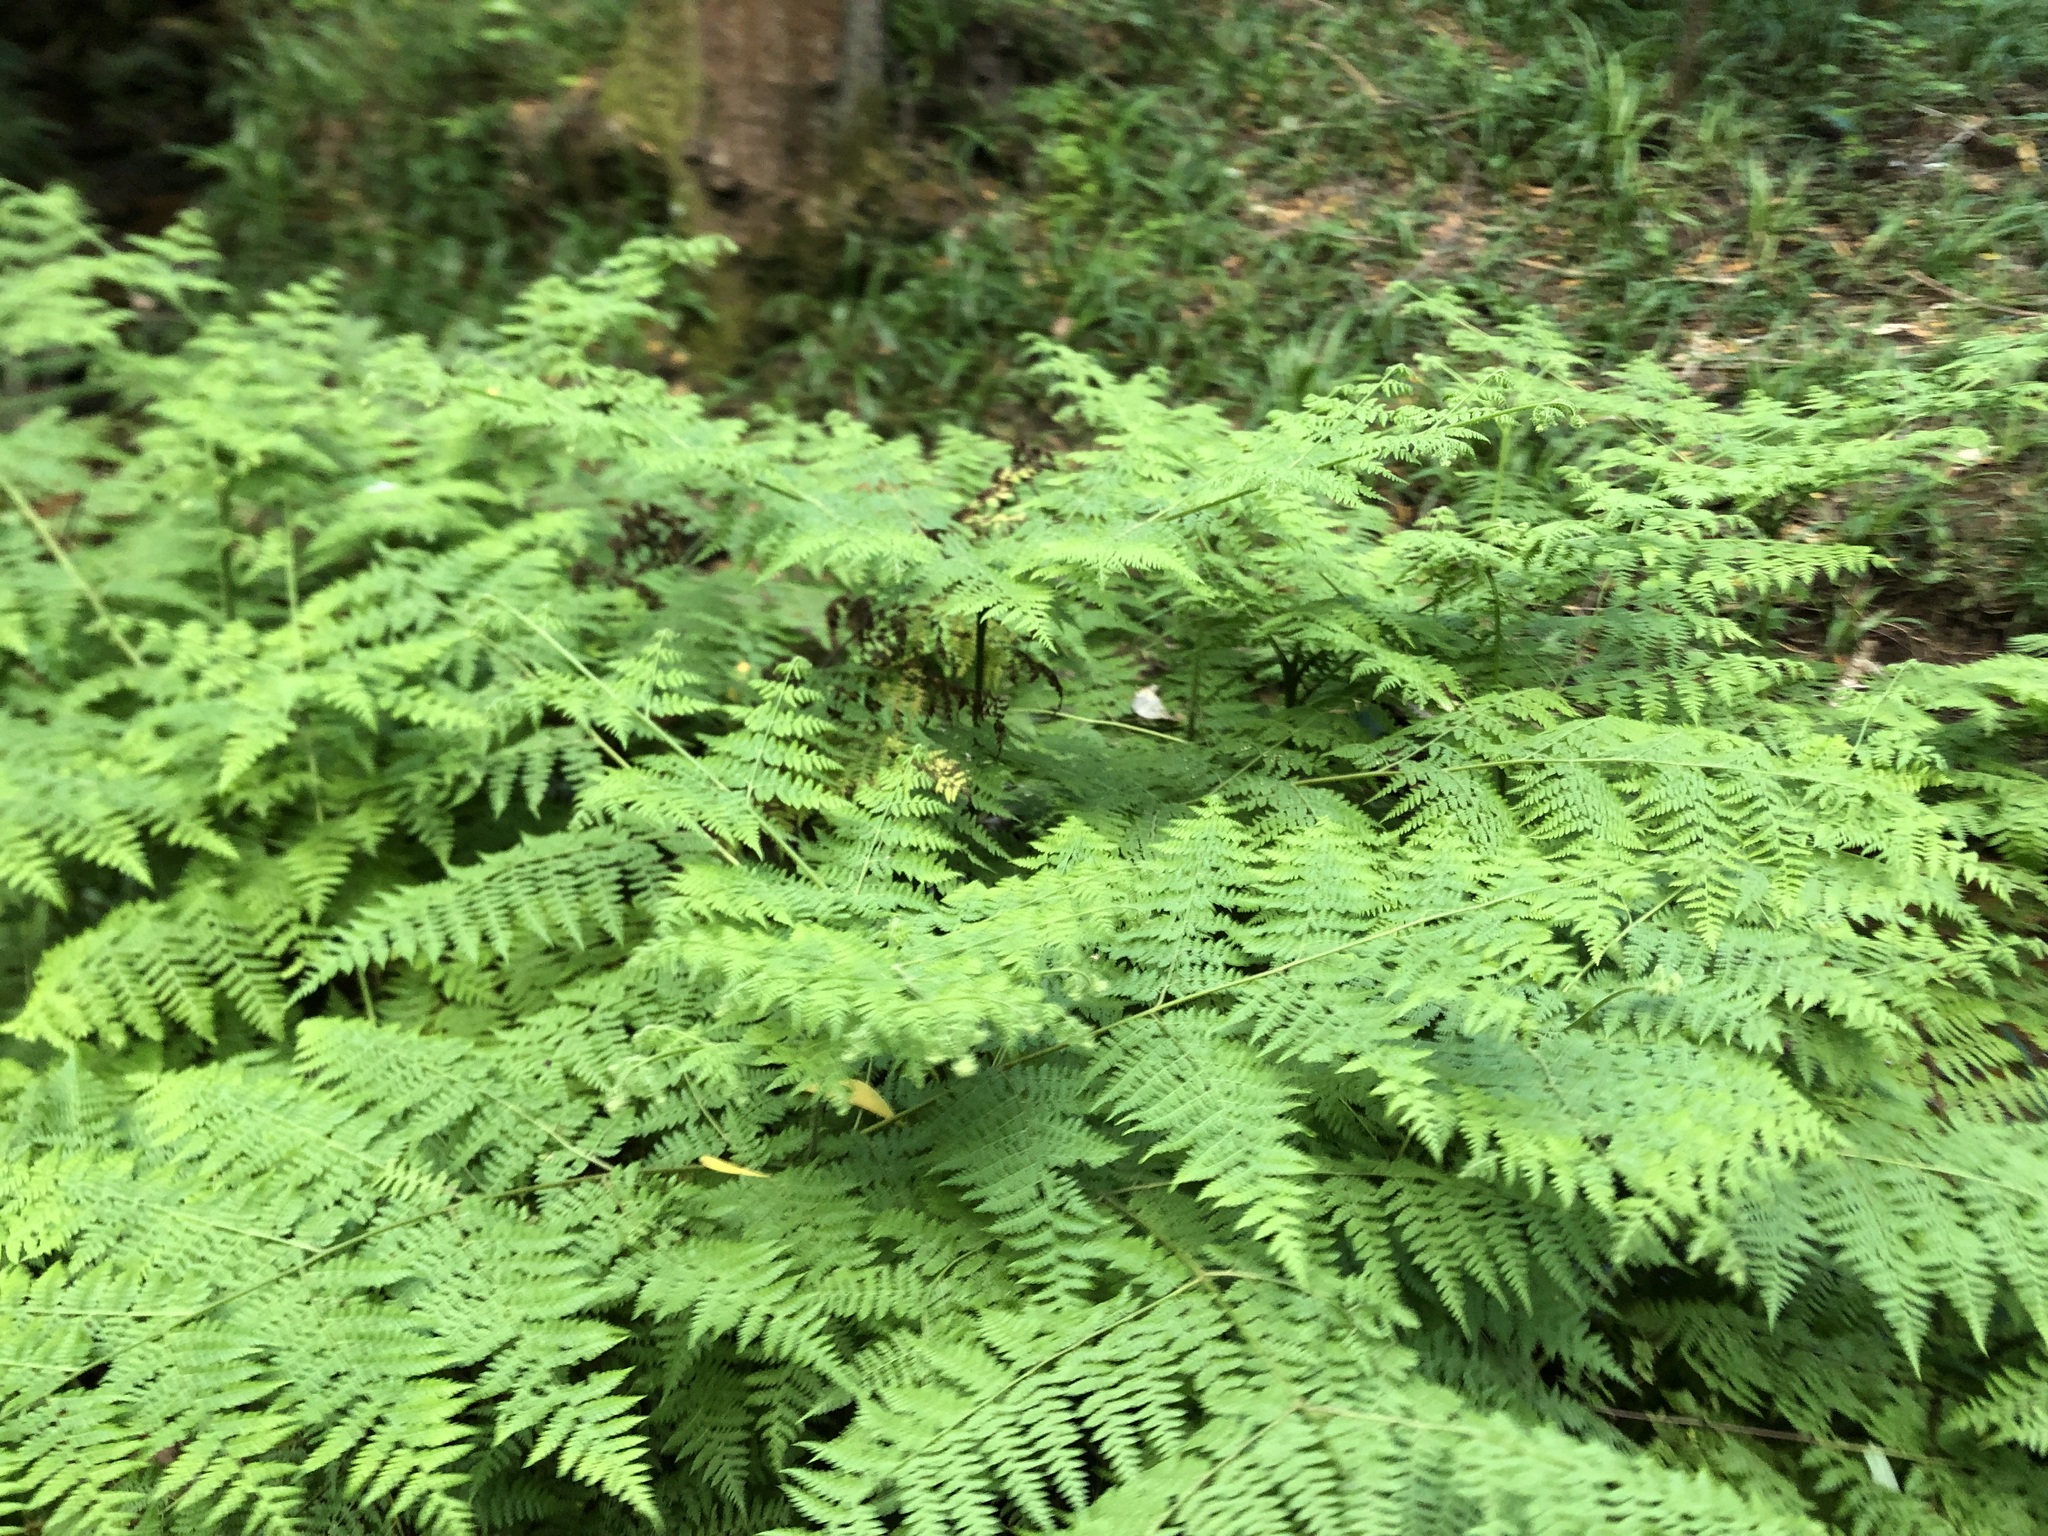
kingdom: Plantae
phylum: Tracheophyta
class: Polypodiopsida
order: Polypodiales
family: Dennstaedtiaceae
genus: Hypolepis
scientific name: Hypolepis sparsisora
